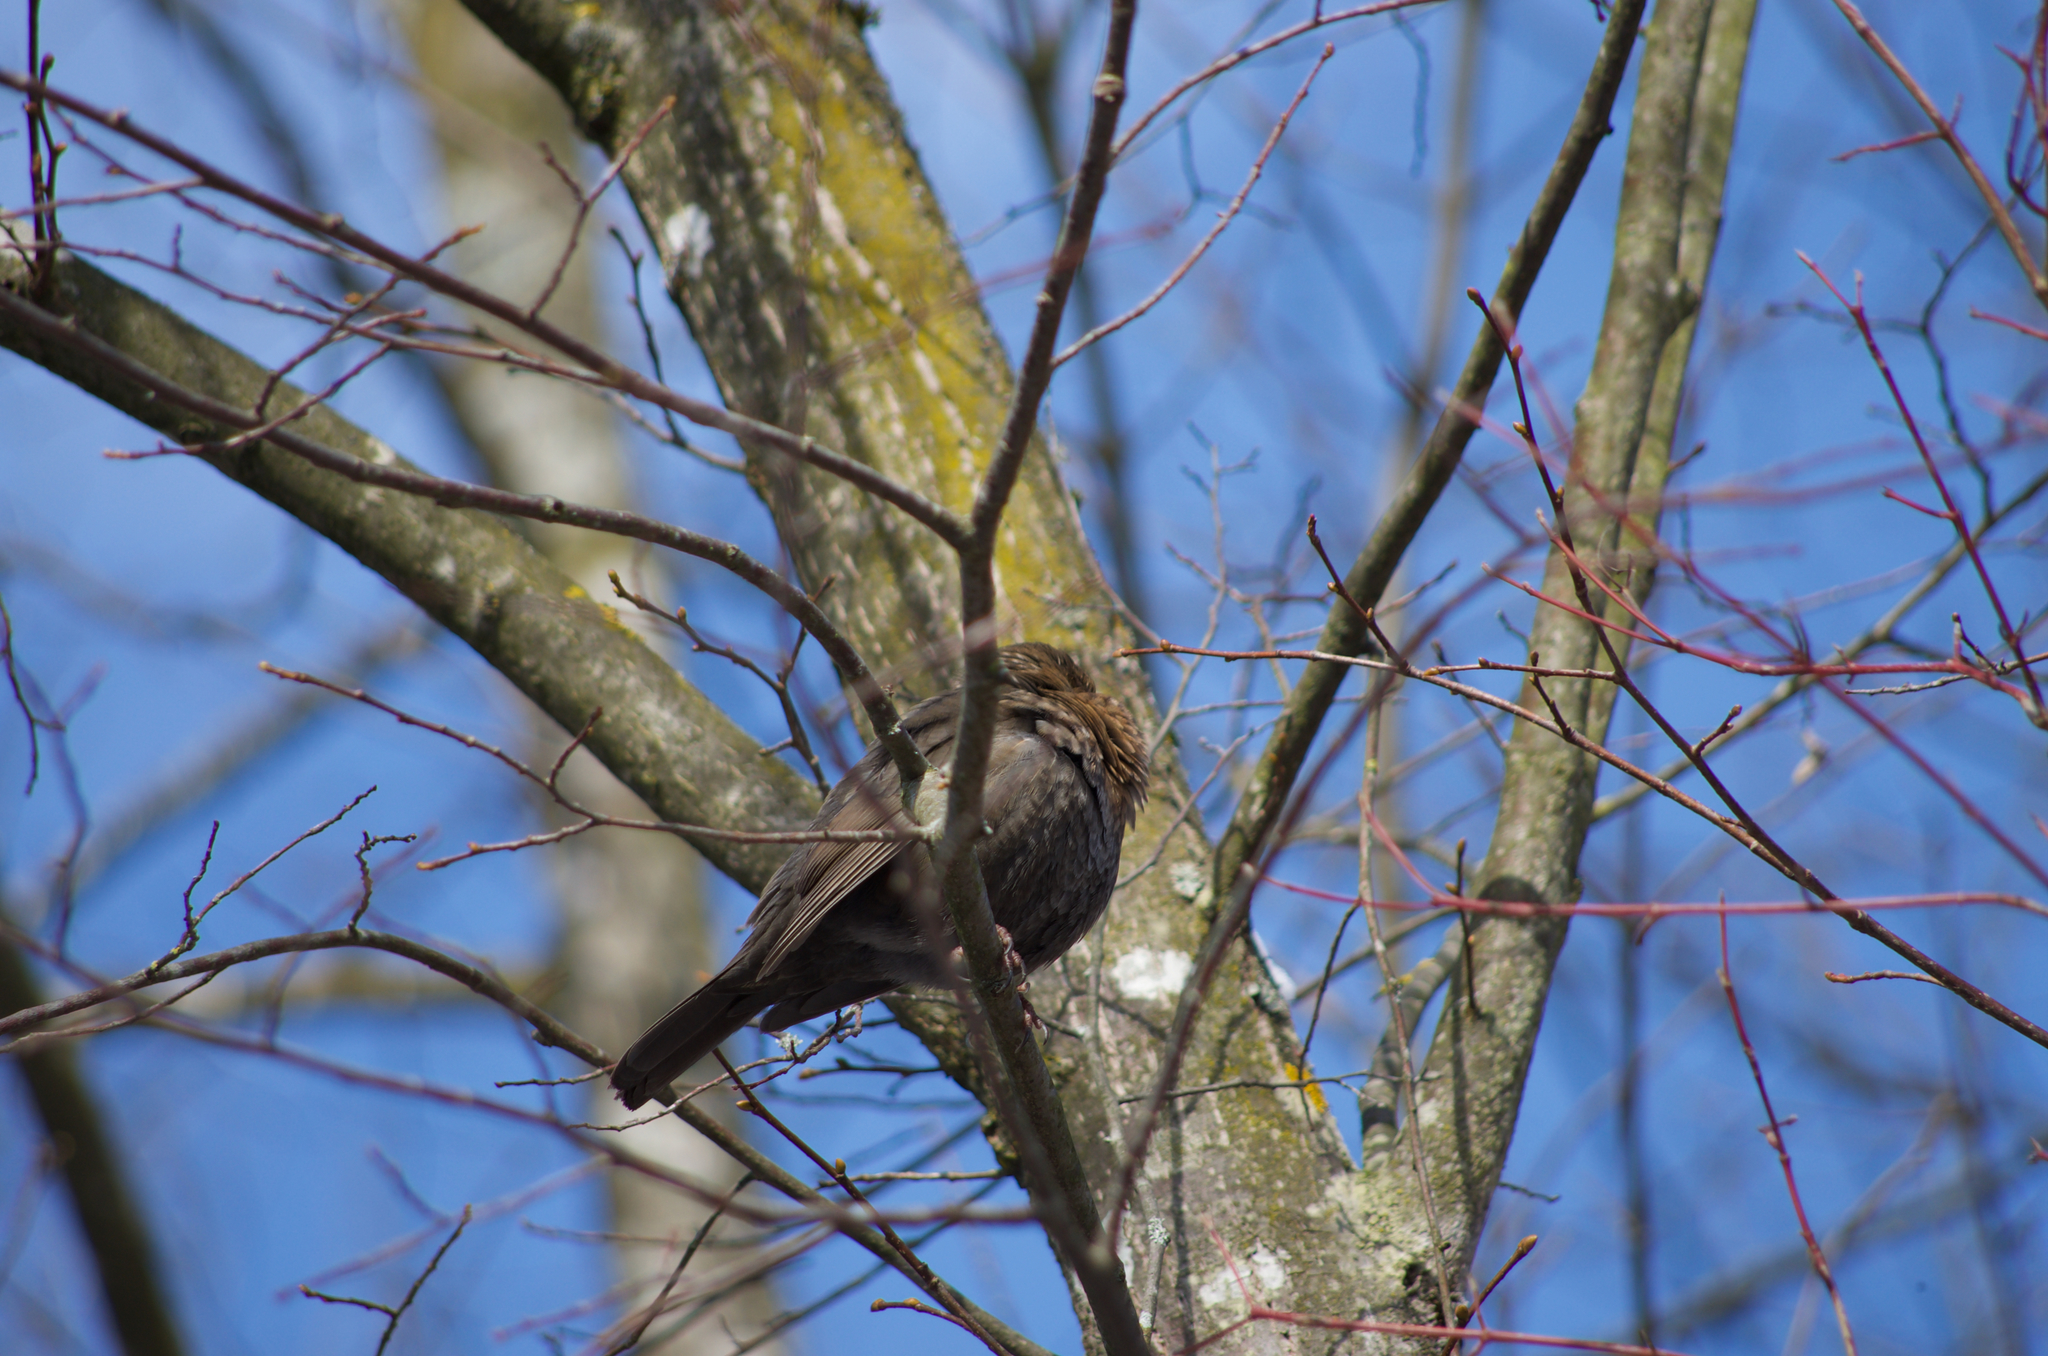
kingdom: Animalia
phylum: Chordata
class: Aves
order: Passeriformes
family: Turdidae
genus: Turdus
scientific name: Turdus merula
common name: Common blackbird
